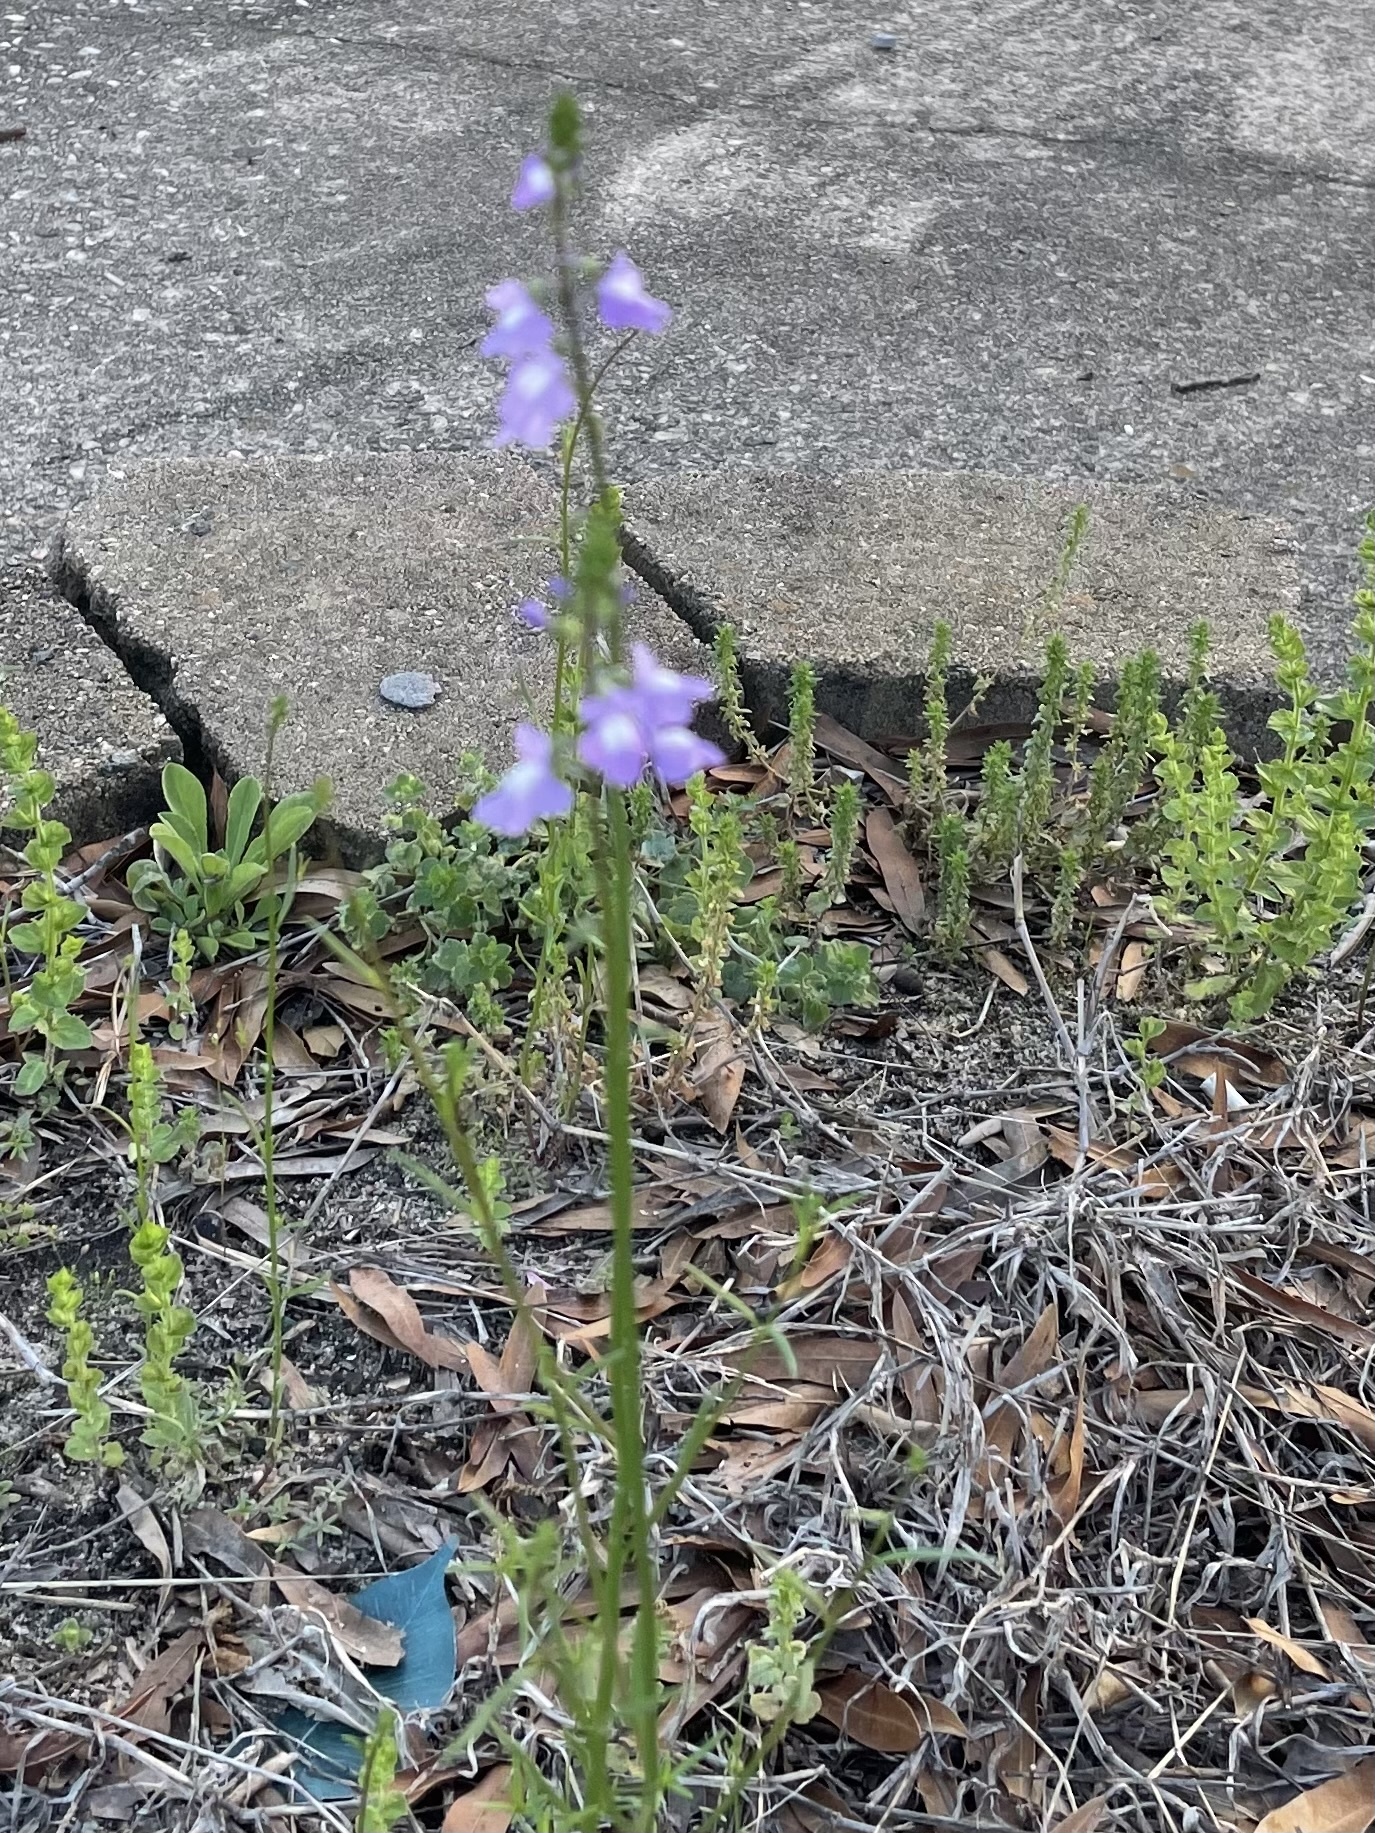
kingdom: Plantae
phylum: Tracheophyta
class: Magnoliopsida
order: Lamiales
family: Plantaginaceae
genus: Nuttallanthus
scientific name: Nuttallanthus canadensis
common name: Blue toadflax
